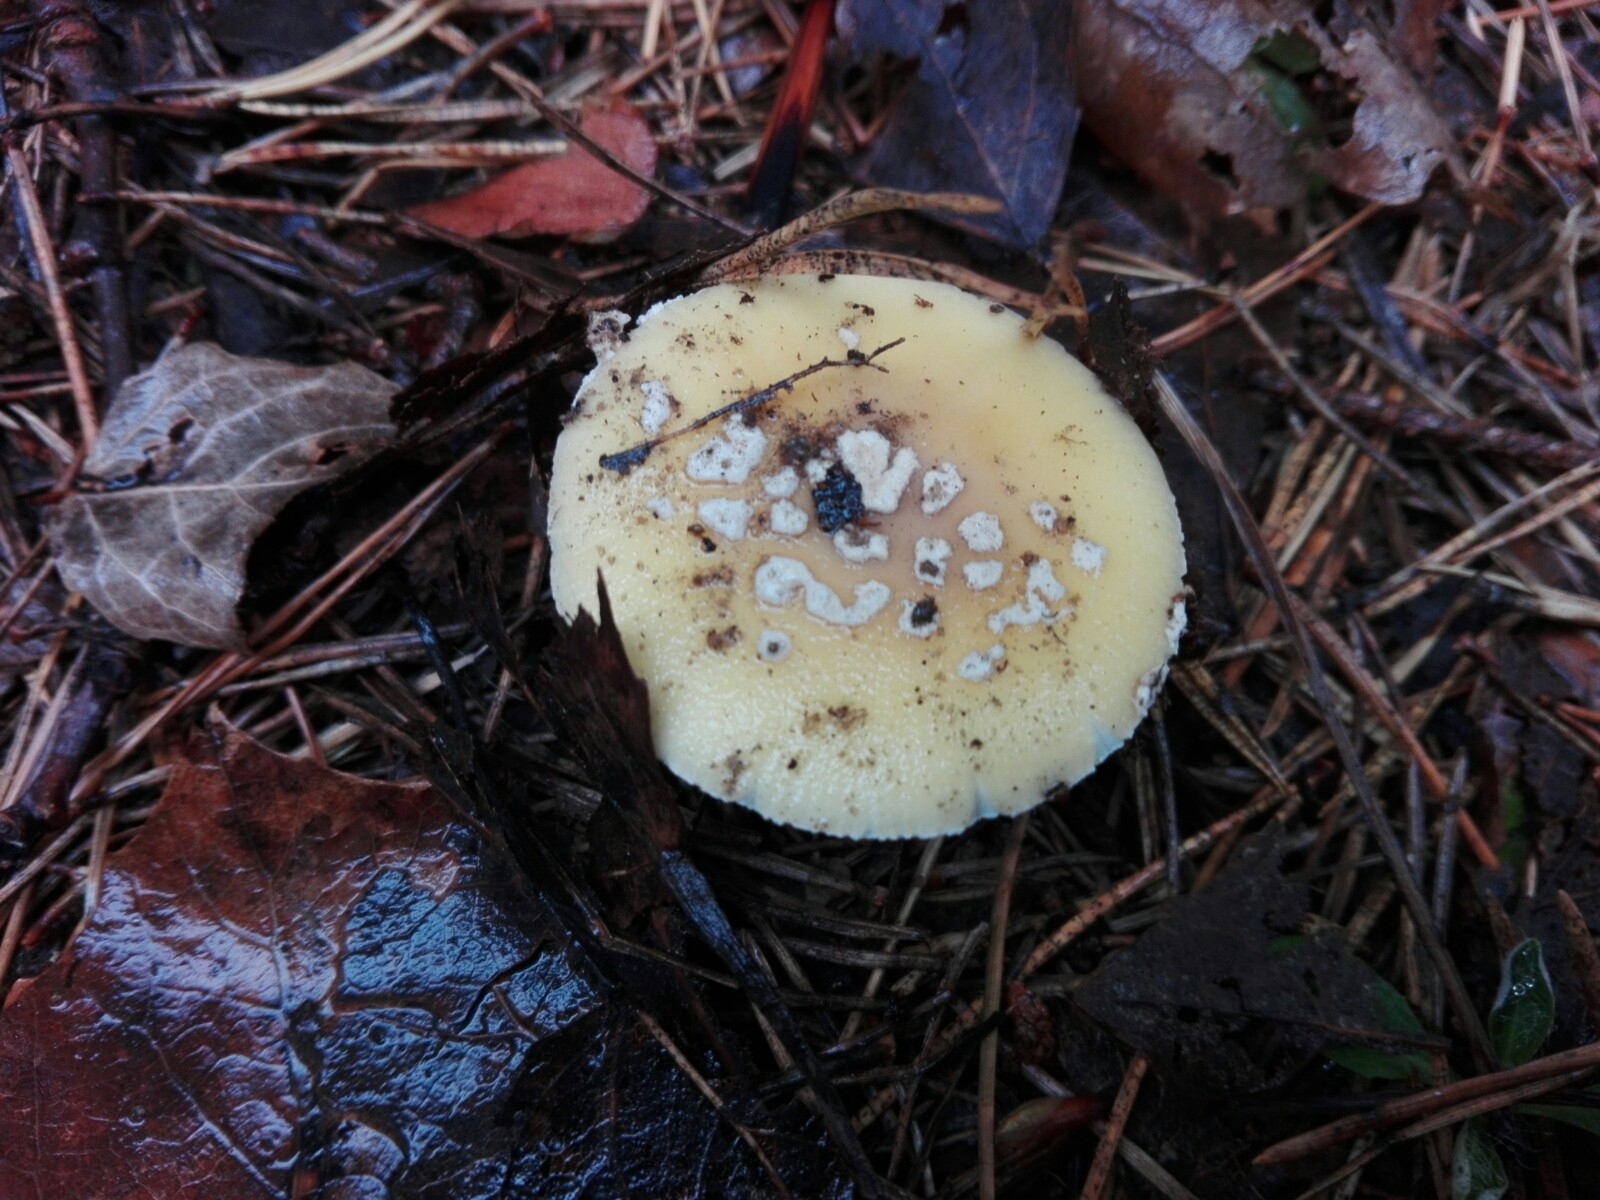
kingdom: Fungi
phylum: Basidiomycota
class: Agaricomycetes
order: Agaricales
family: Amanitaceae
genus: Amanita
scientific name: Amanita gemmata
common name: Jewelled amanita
